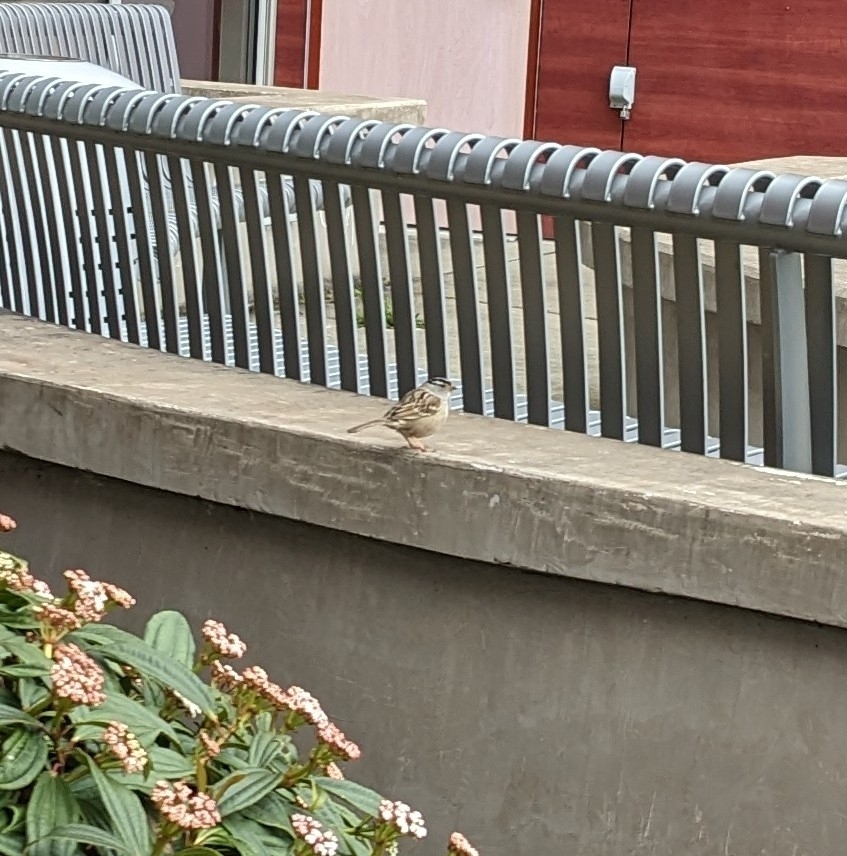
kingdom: Animalia
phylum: Chordata
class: Aves
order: Passeriformes
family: Passerellidae
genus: Zonotrichia
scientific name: Zonotrichia leucophrys
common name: White-crowned sparrow
